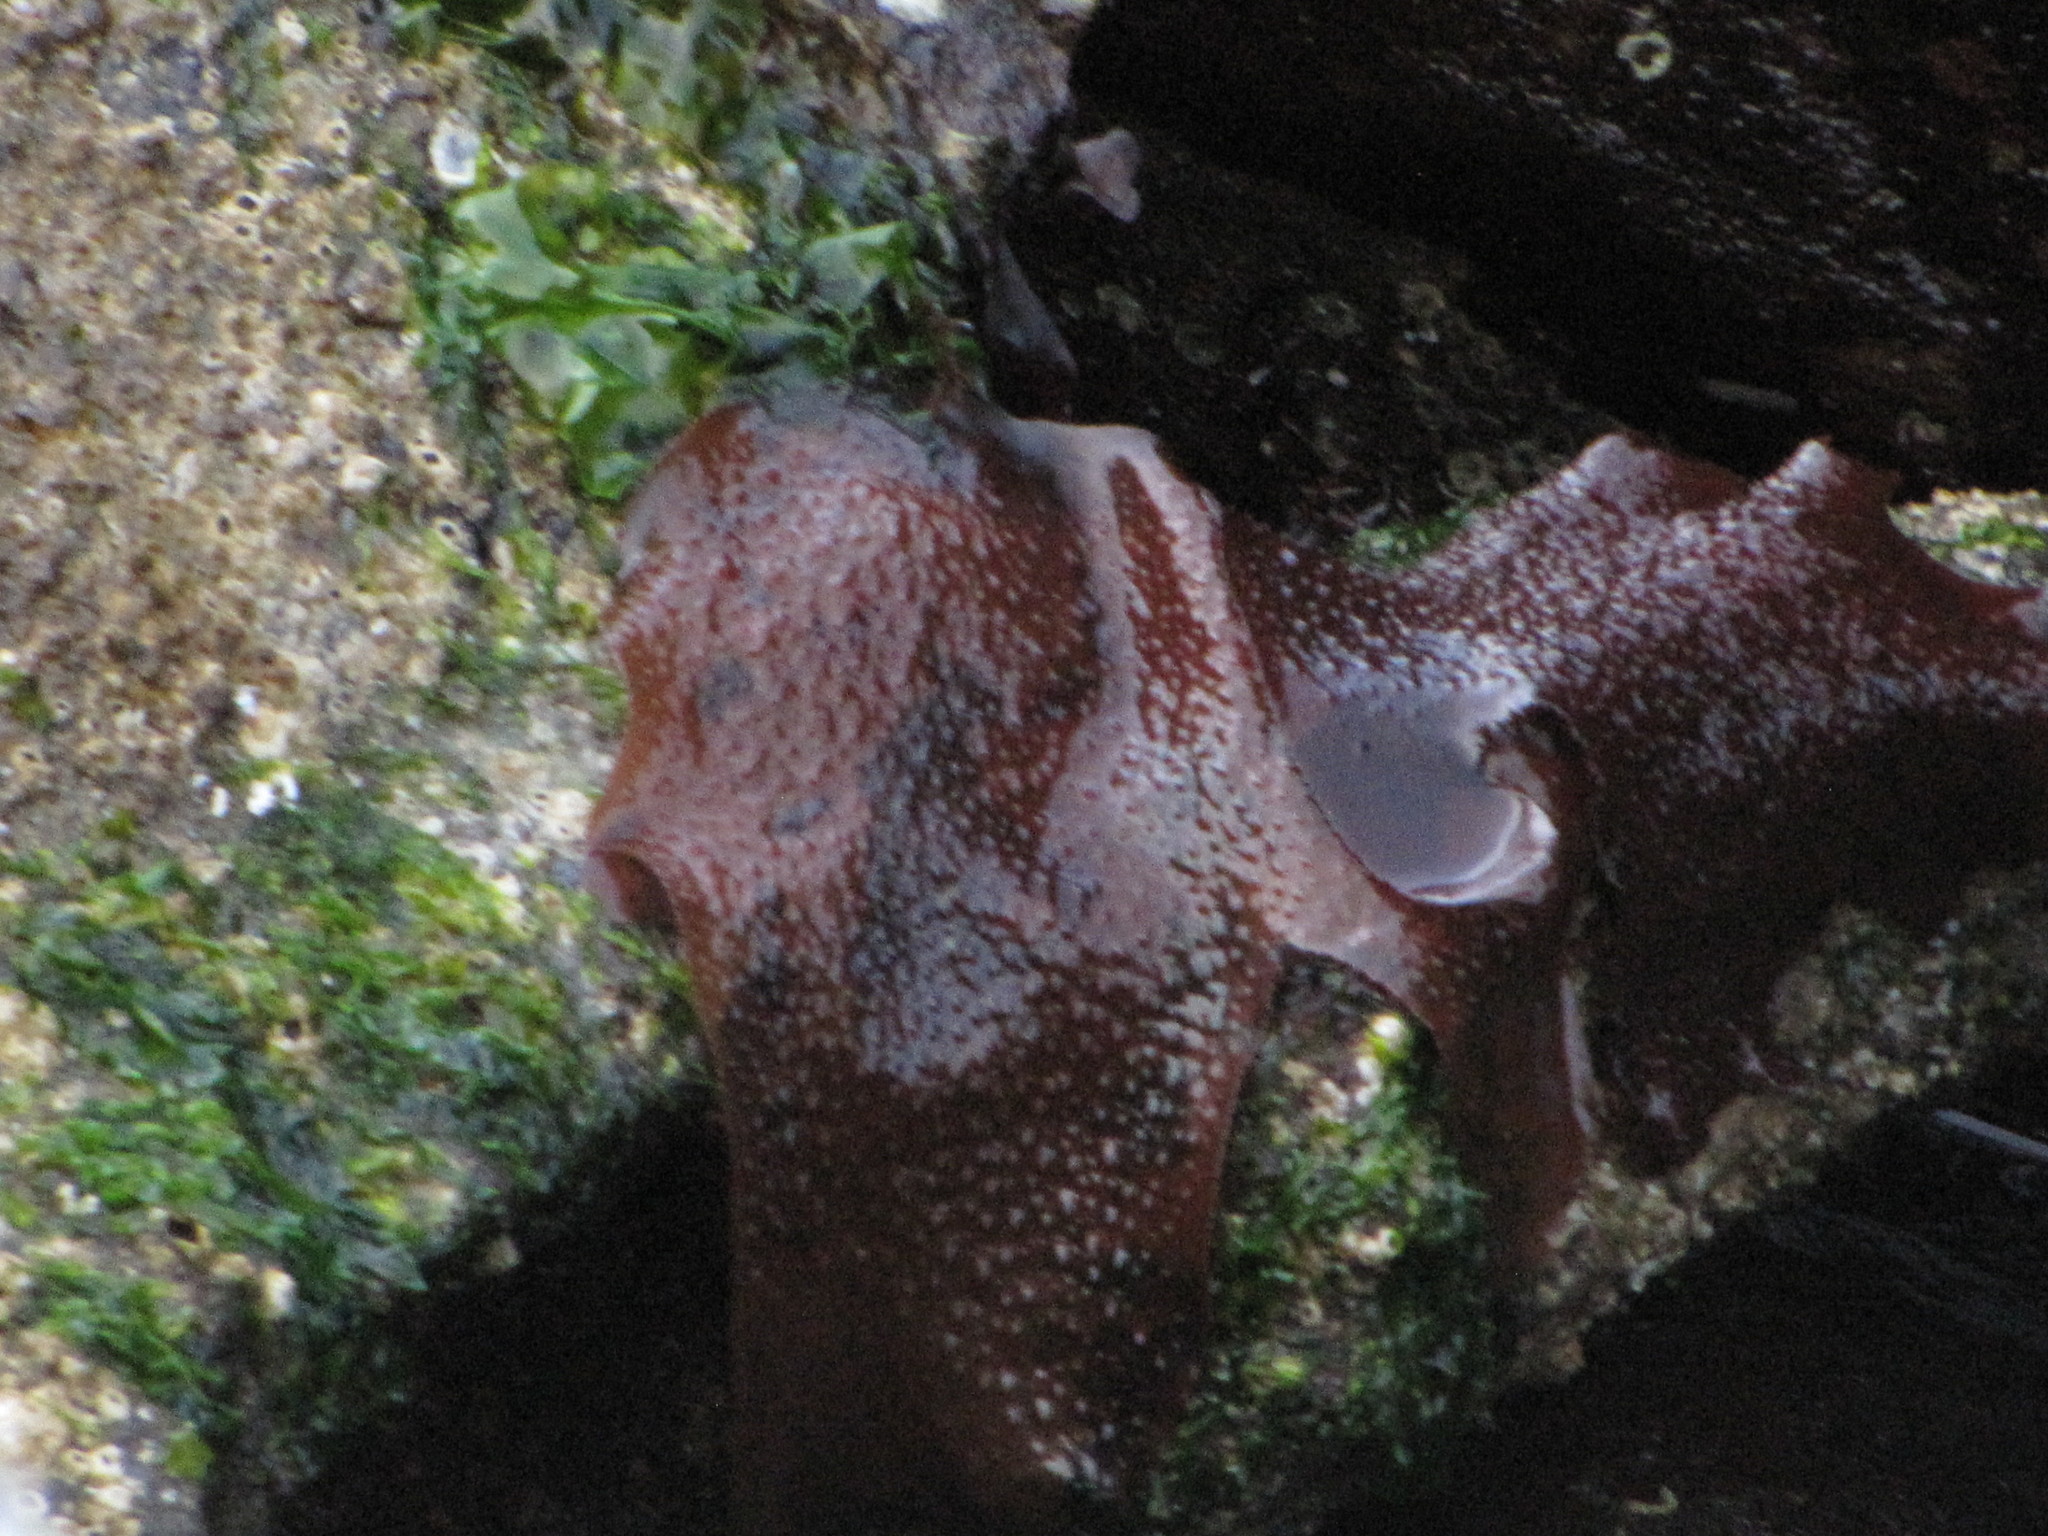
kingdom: Plantae
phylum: Rhodophyta
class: Florideophyceae
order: Gigartinales
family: Gigartinaceae
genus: Chondracanthus
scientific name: Chondracanthus exasperatus
